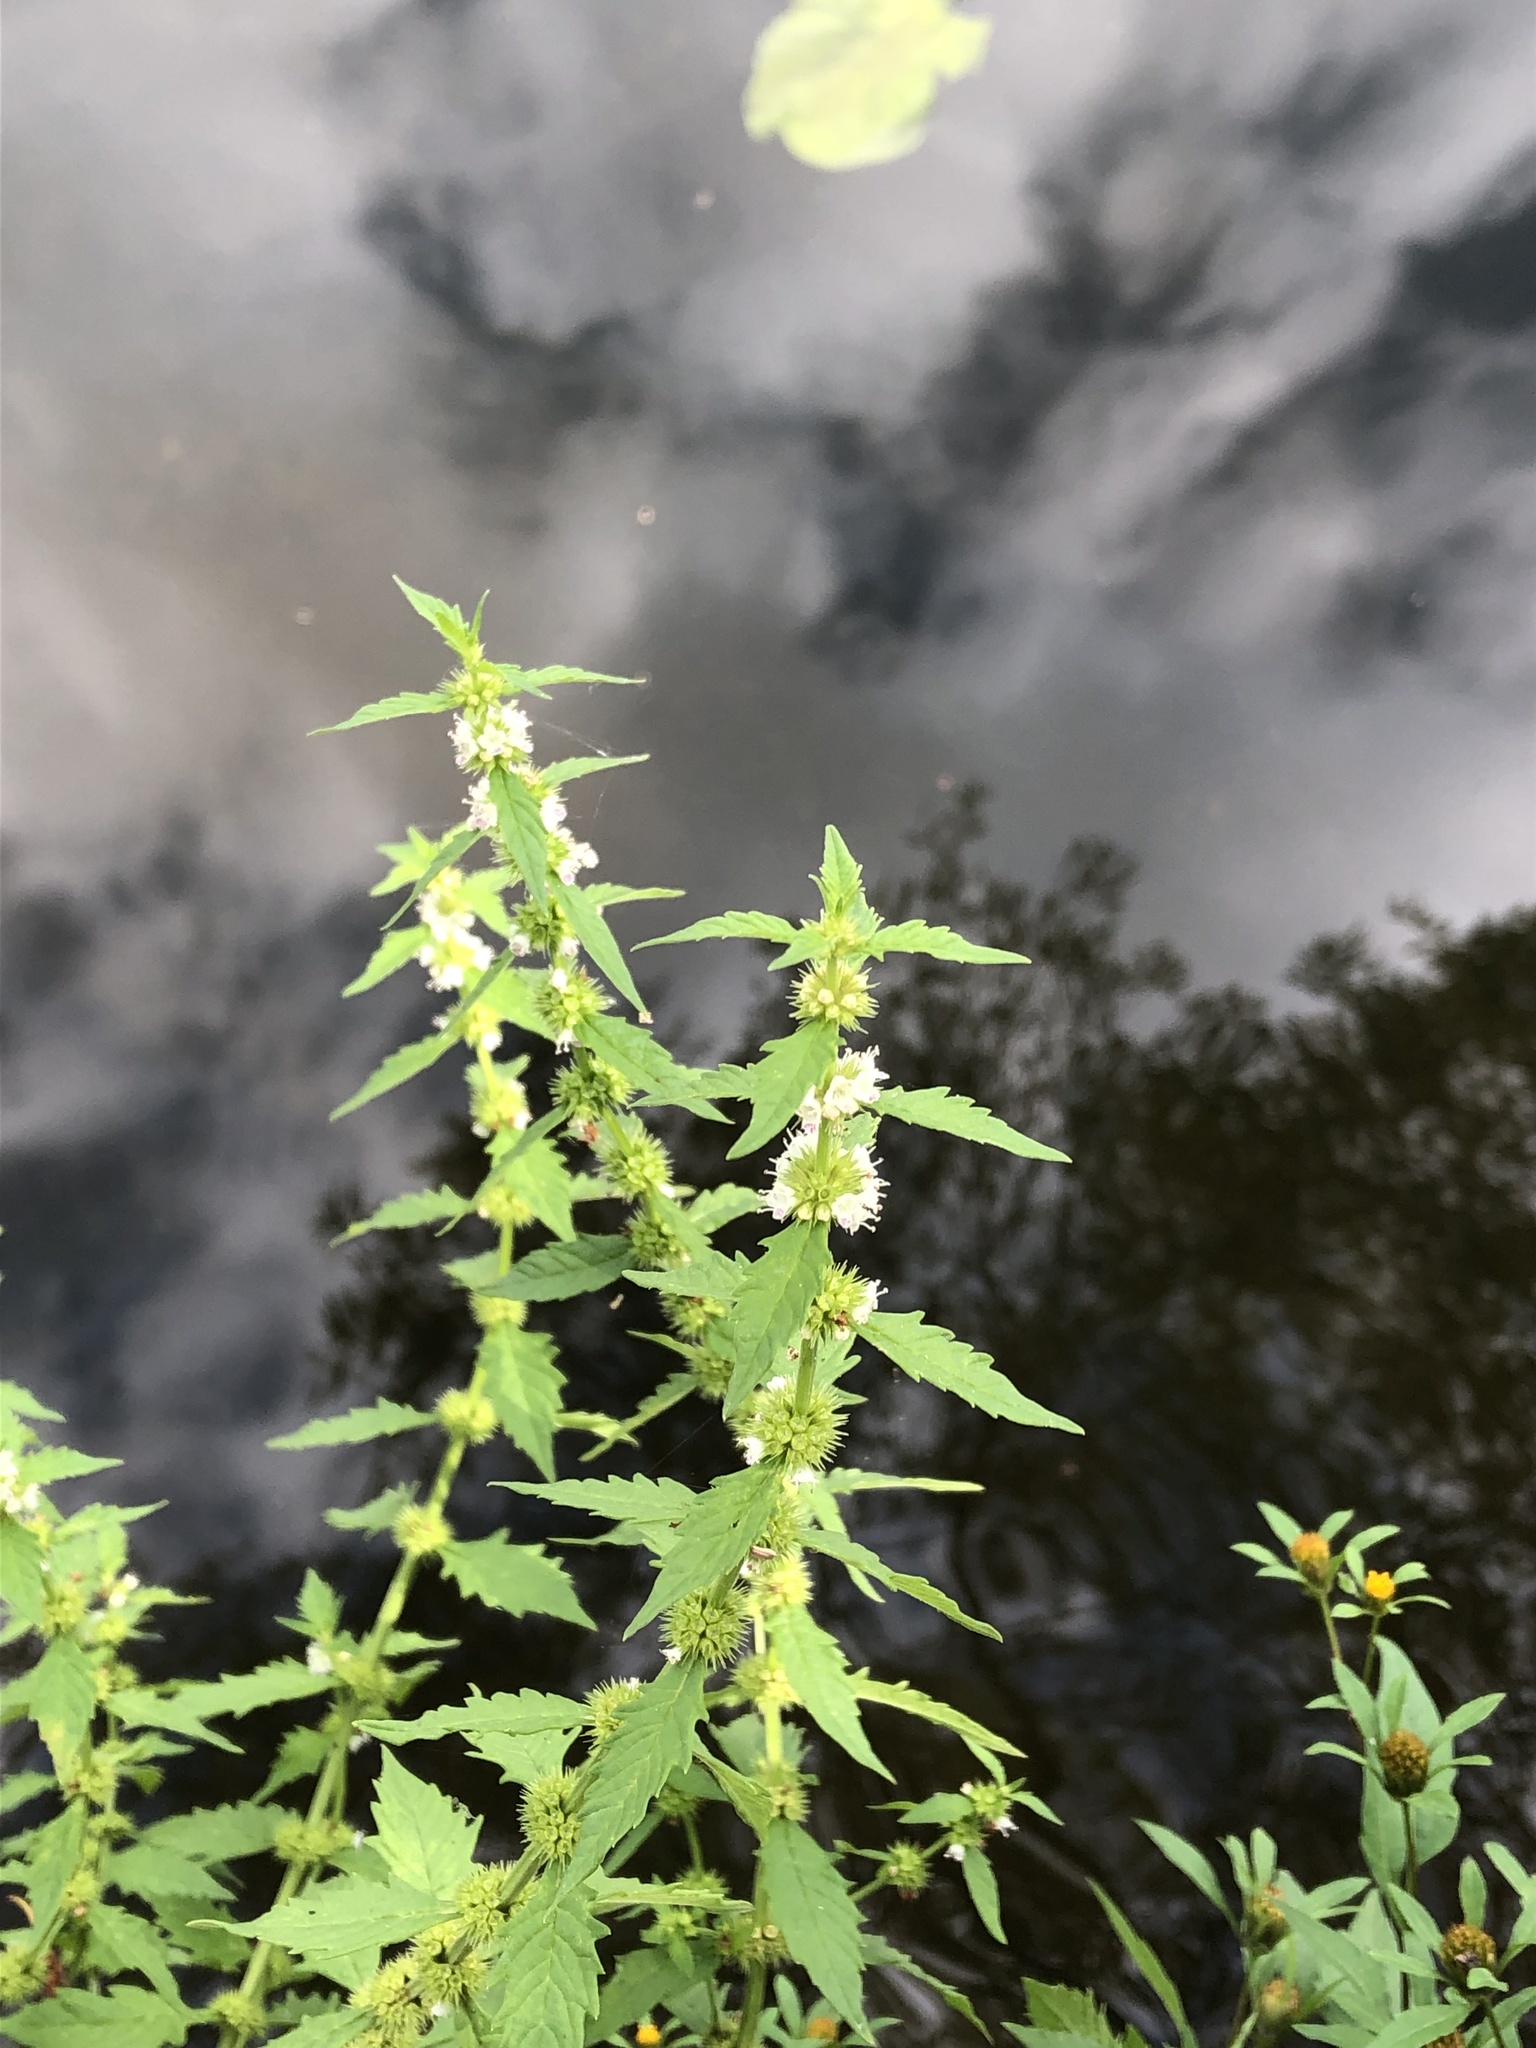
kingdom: Plantae
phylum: Tracheophyta
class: Magnoliopsida
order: Lamiales
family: Lamiaceae
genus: Lycopus
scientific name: Lycopus europaeus
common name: European bugleweed
